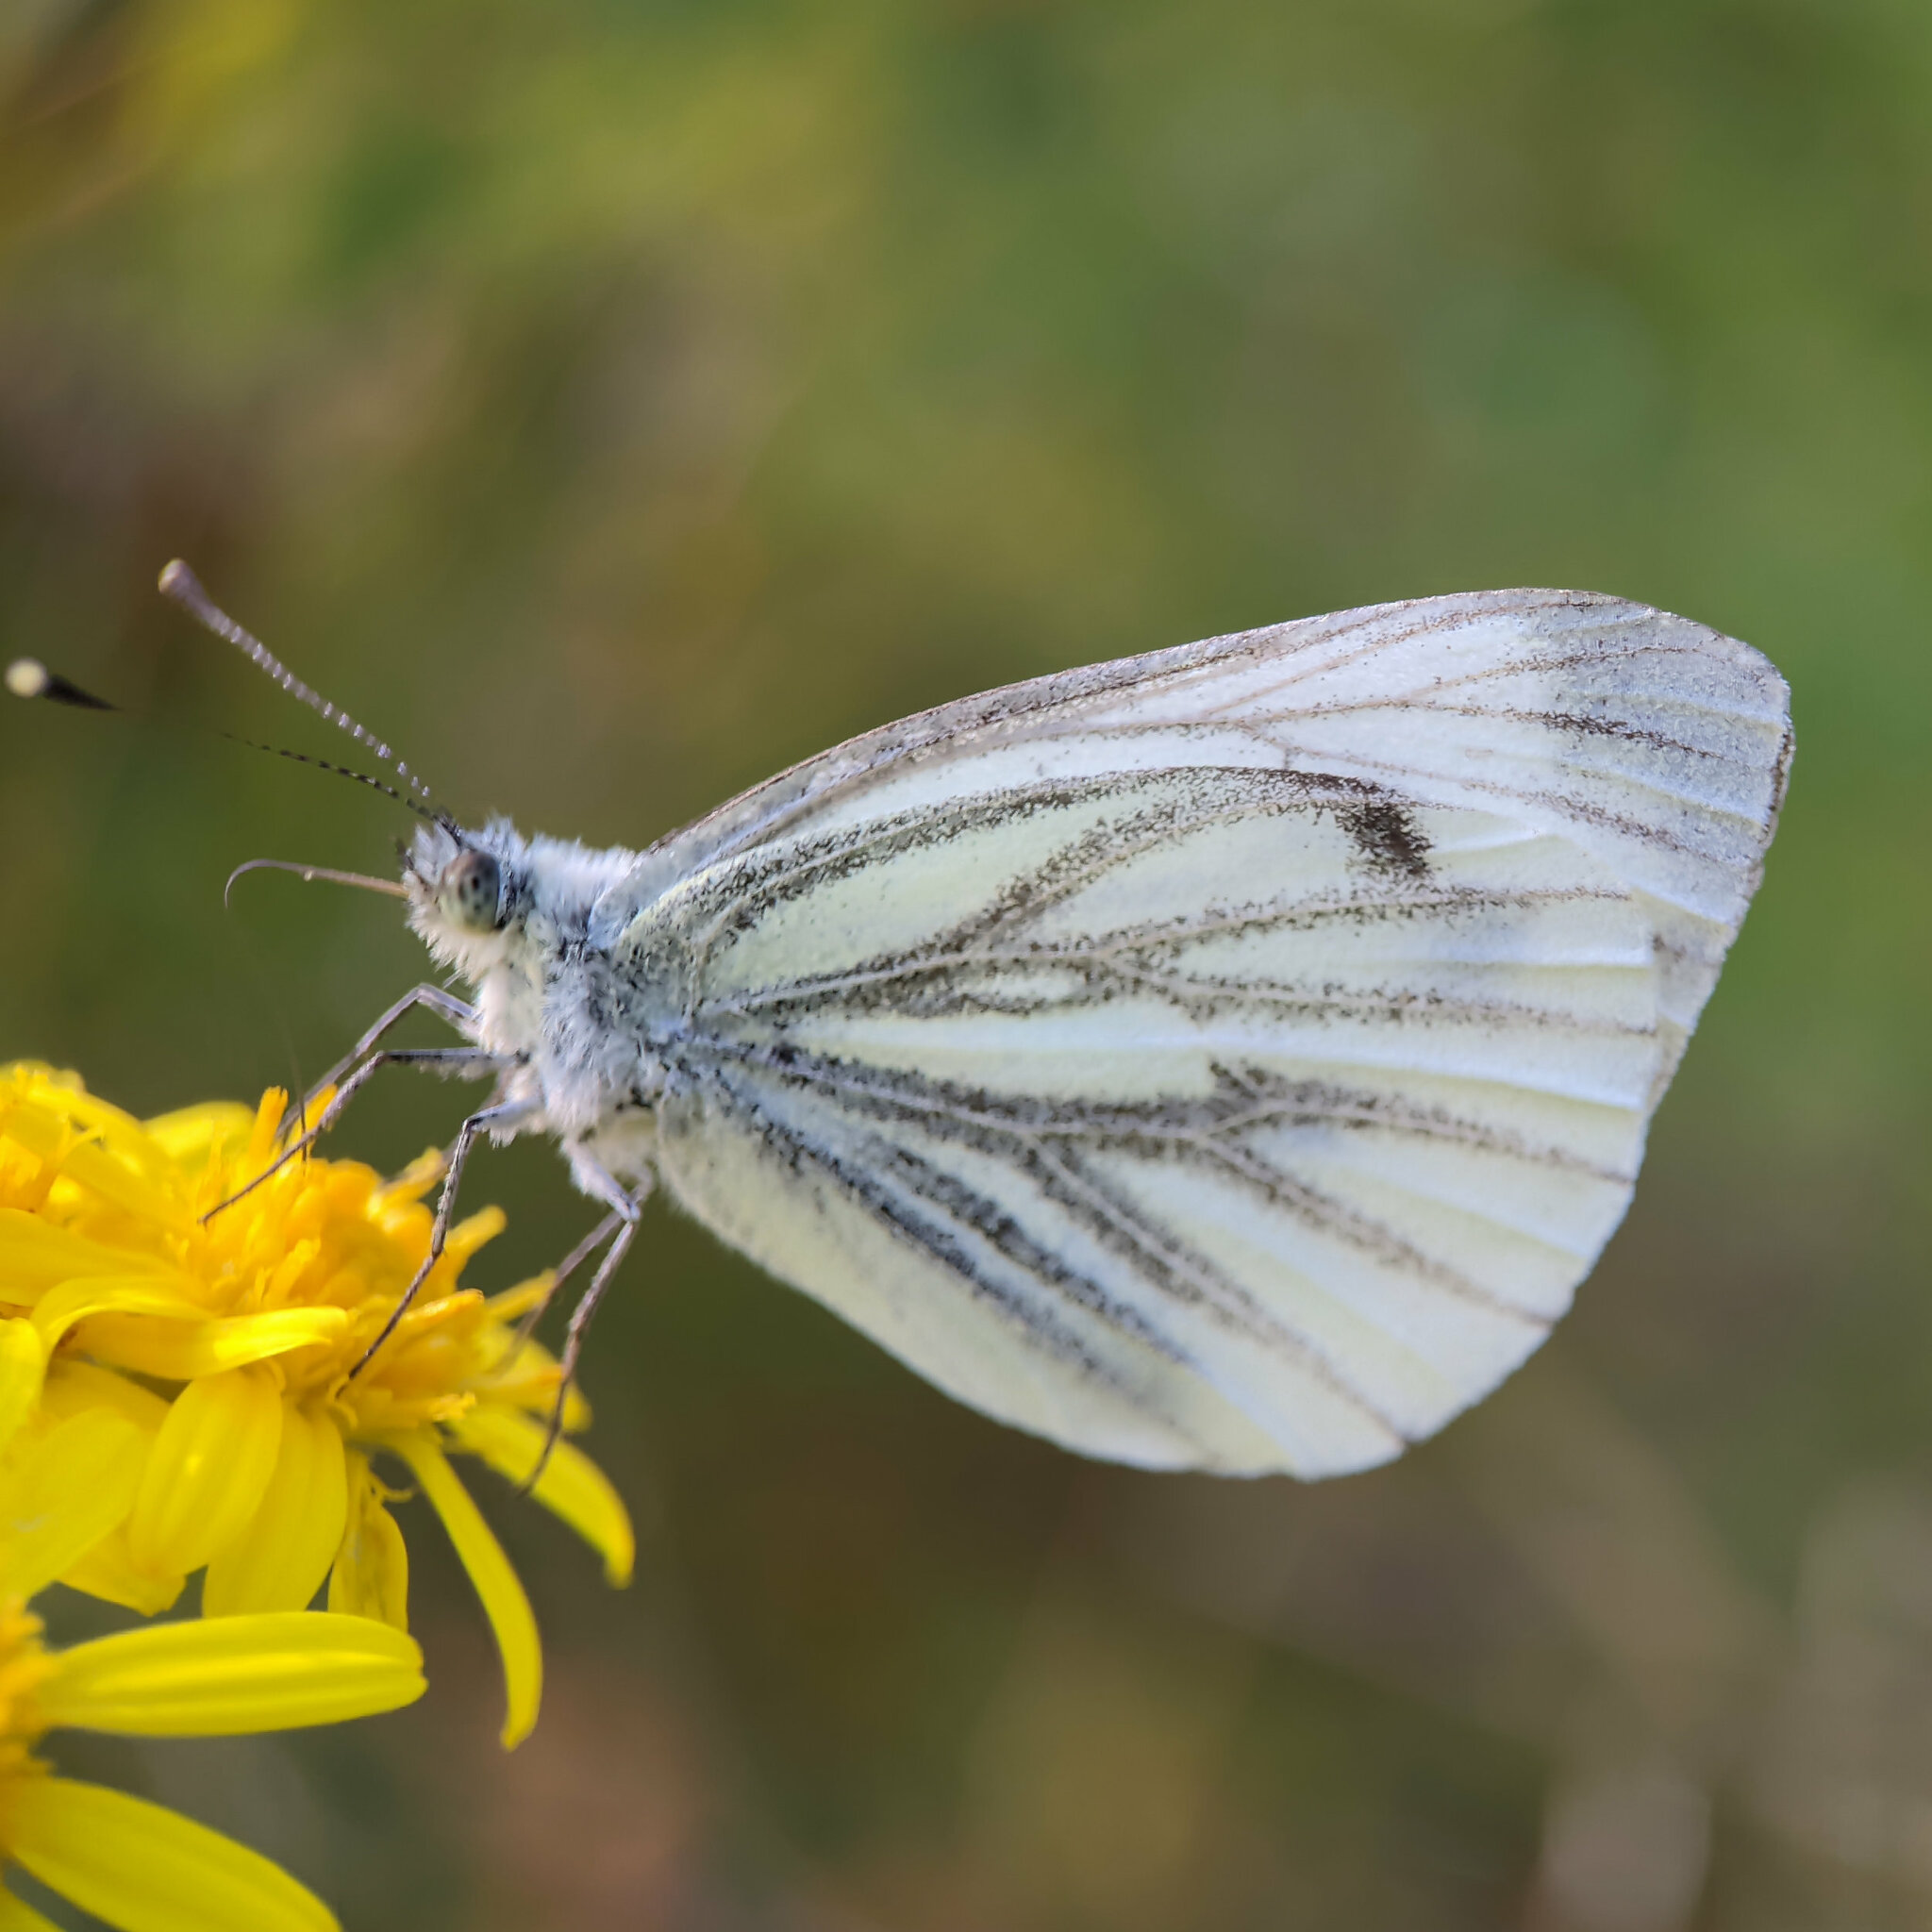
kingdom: Animalia
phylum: Arthropoda
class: Insecta
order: Lepidoptera
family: Pieridae
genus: Pieris
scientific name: Pieris napi
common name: Green-veined white
